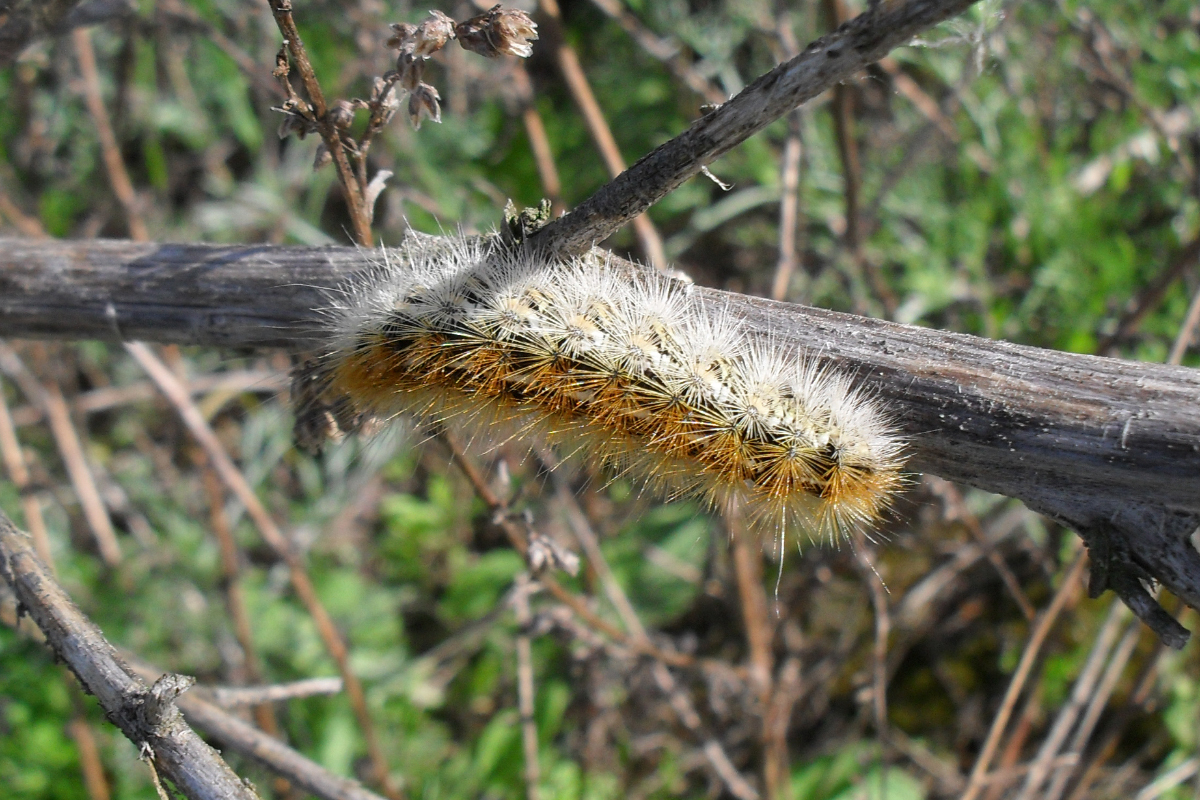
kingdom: Animalia
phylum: Arthropoda
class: Insecta
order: Lepidoptera
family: Erebidae
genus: Rhyparia
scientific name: Rhyparia purpurata
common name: Purple tiger
